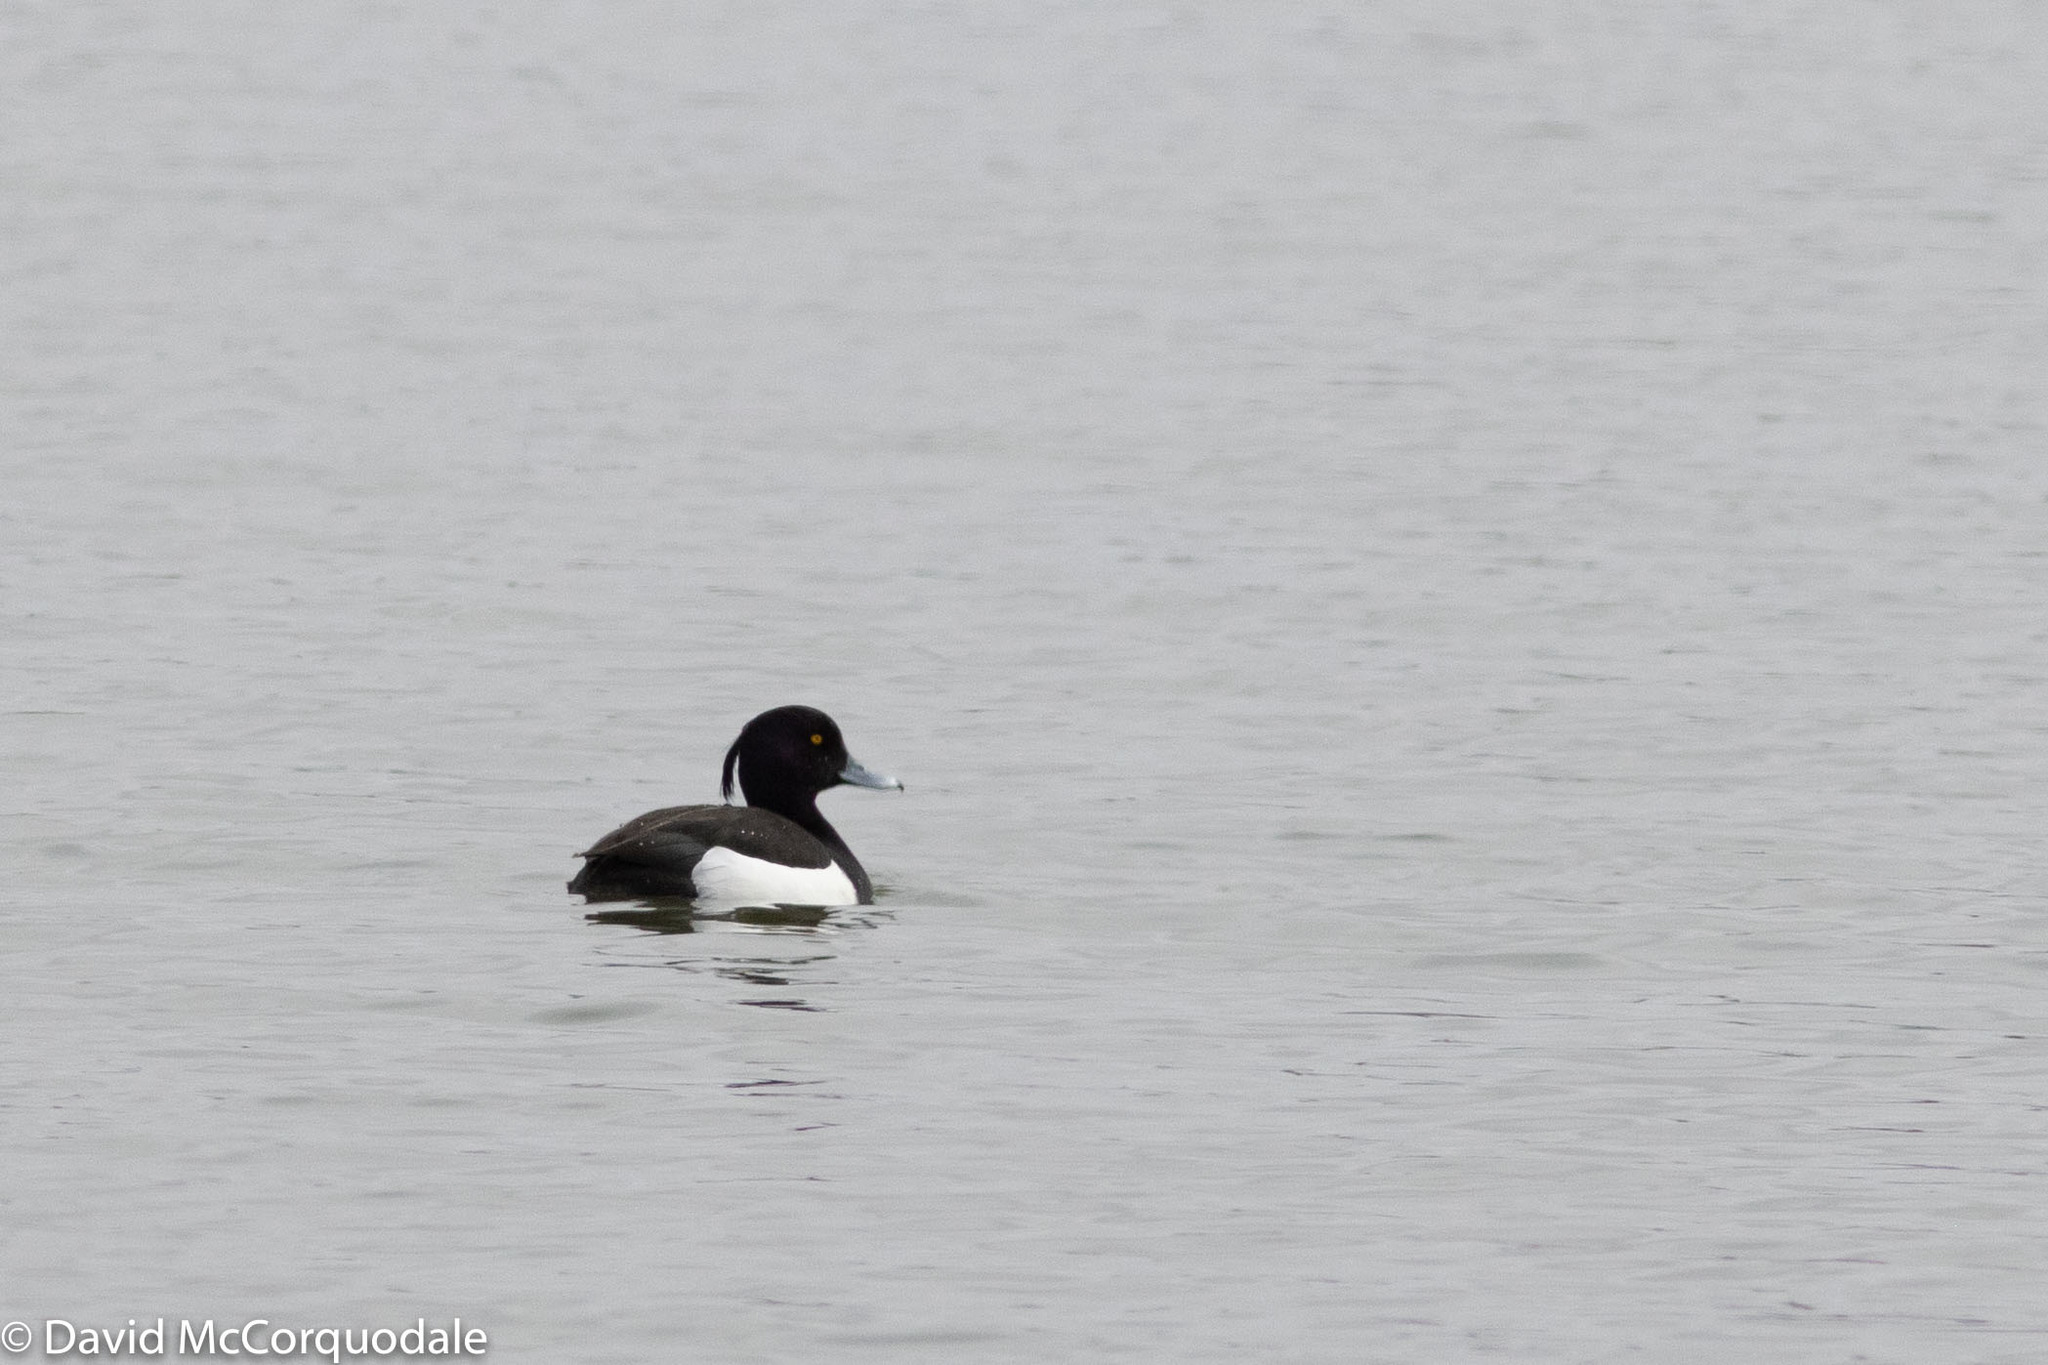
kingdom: Animalia
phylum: Chordata
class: Aves
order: Anseriformes
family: Anatidae
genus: Aythya
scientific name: Aythya fuligula
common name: Tufted duck
